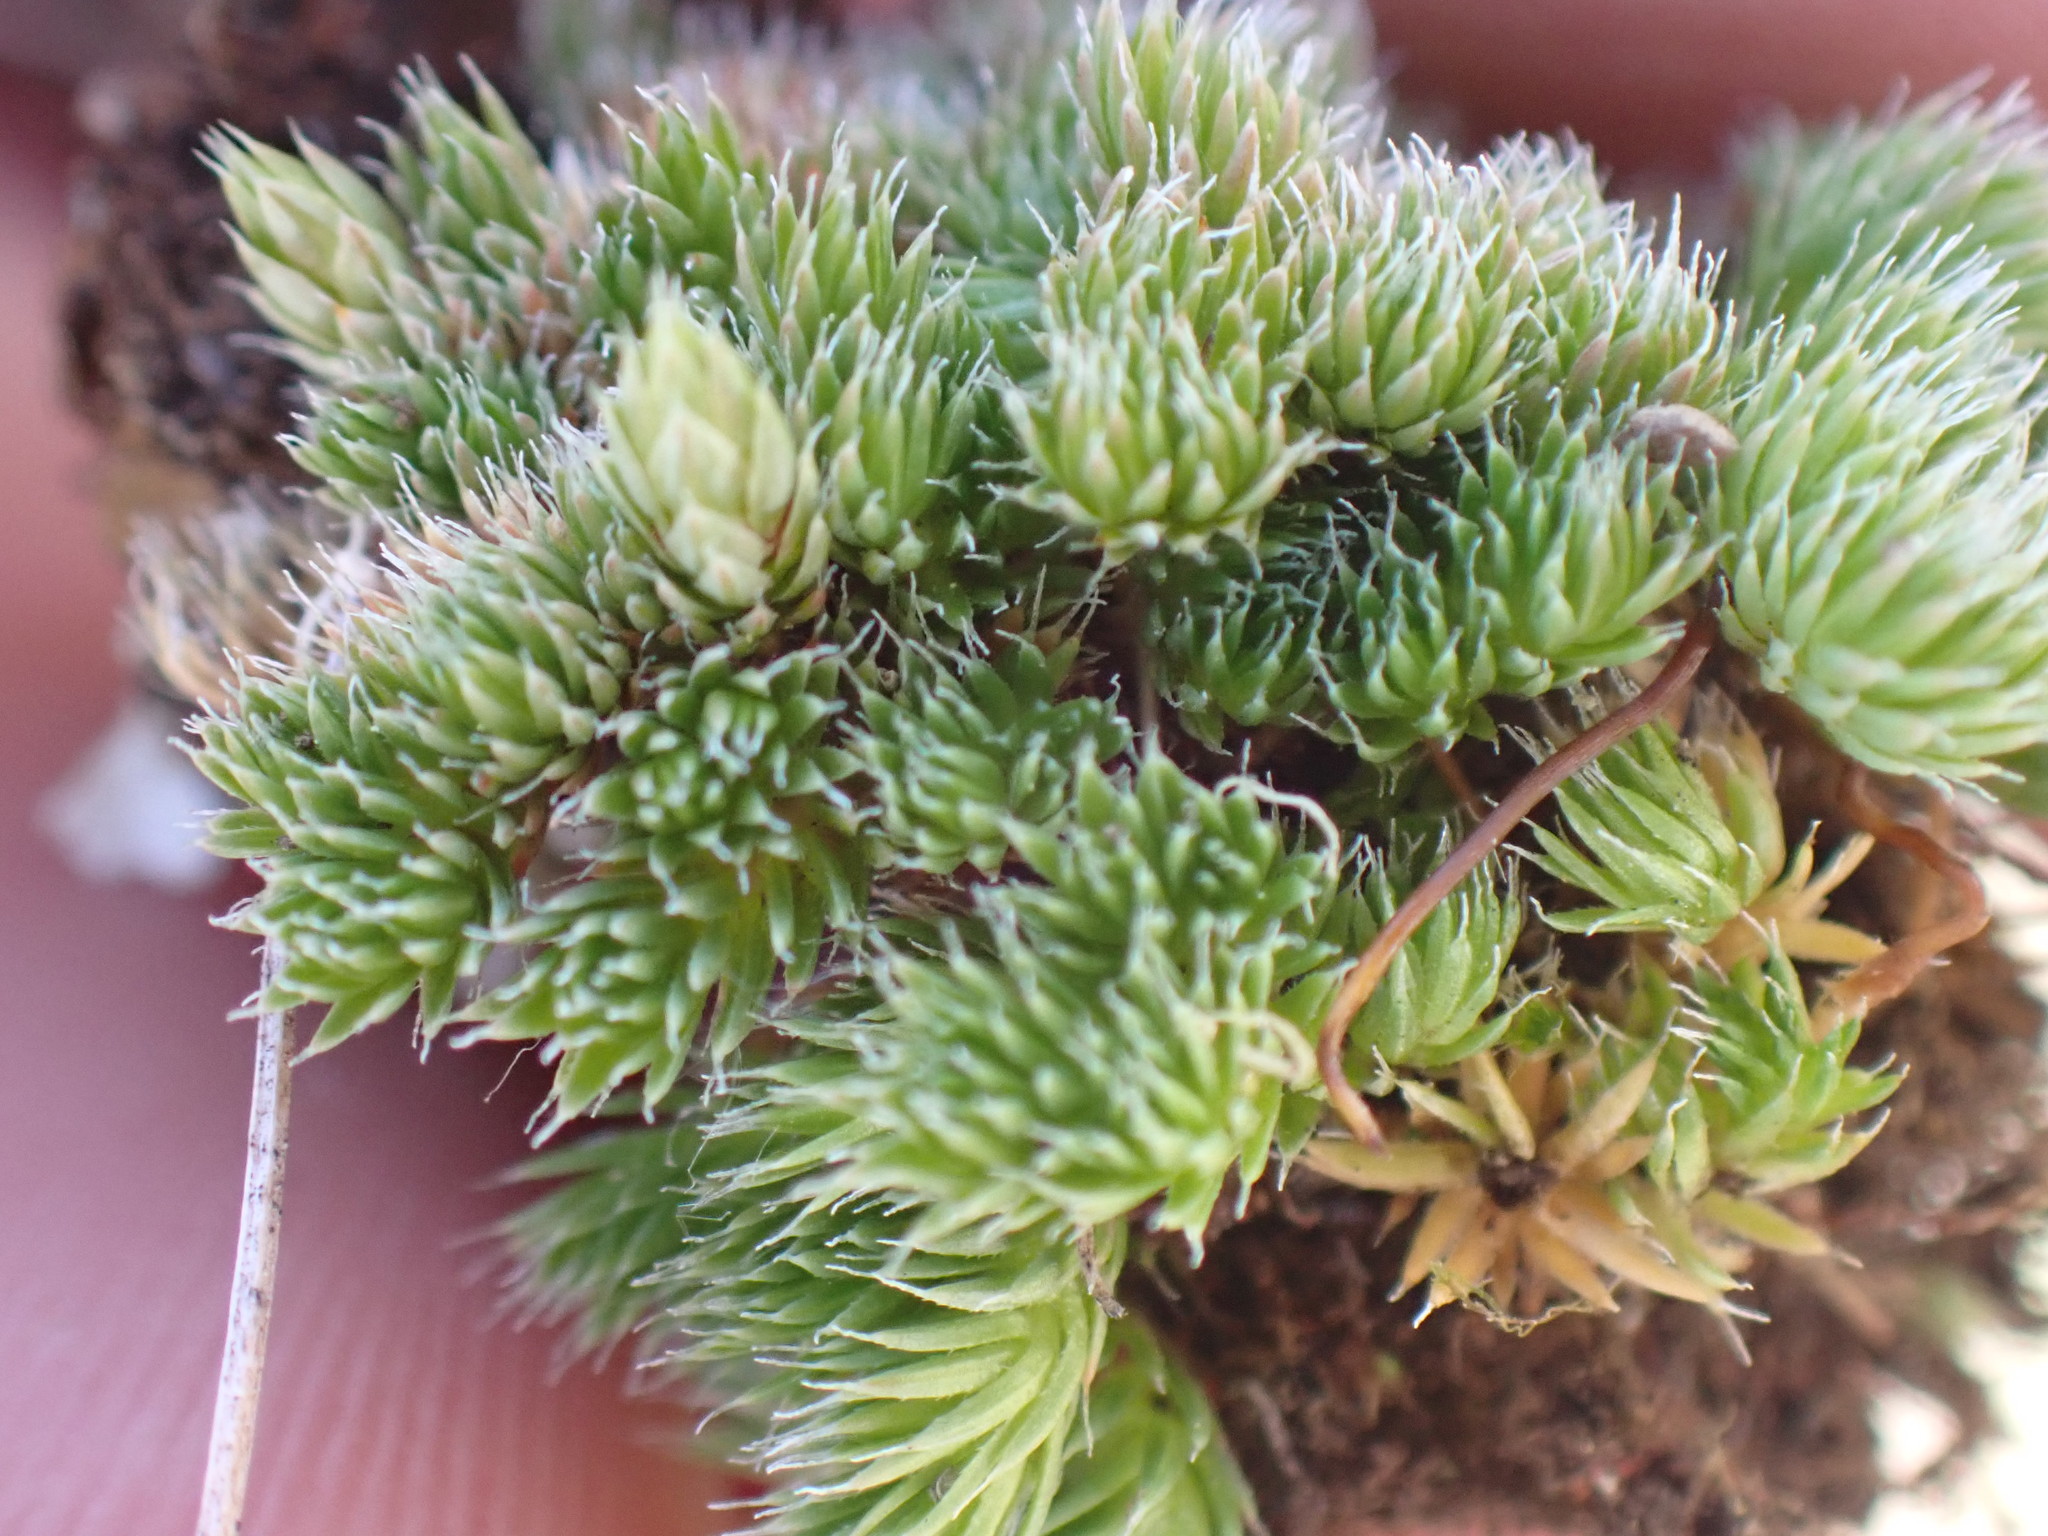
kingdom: Plantae
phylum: Tracheophyta
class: Lycopodiopsida
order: Selaginellales
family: Selaginellaceae
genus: Selaginella
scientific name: Selaginella densa
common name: Mountain spike-moss
